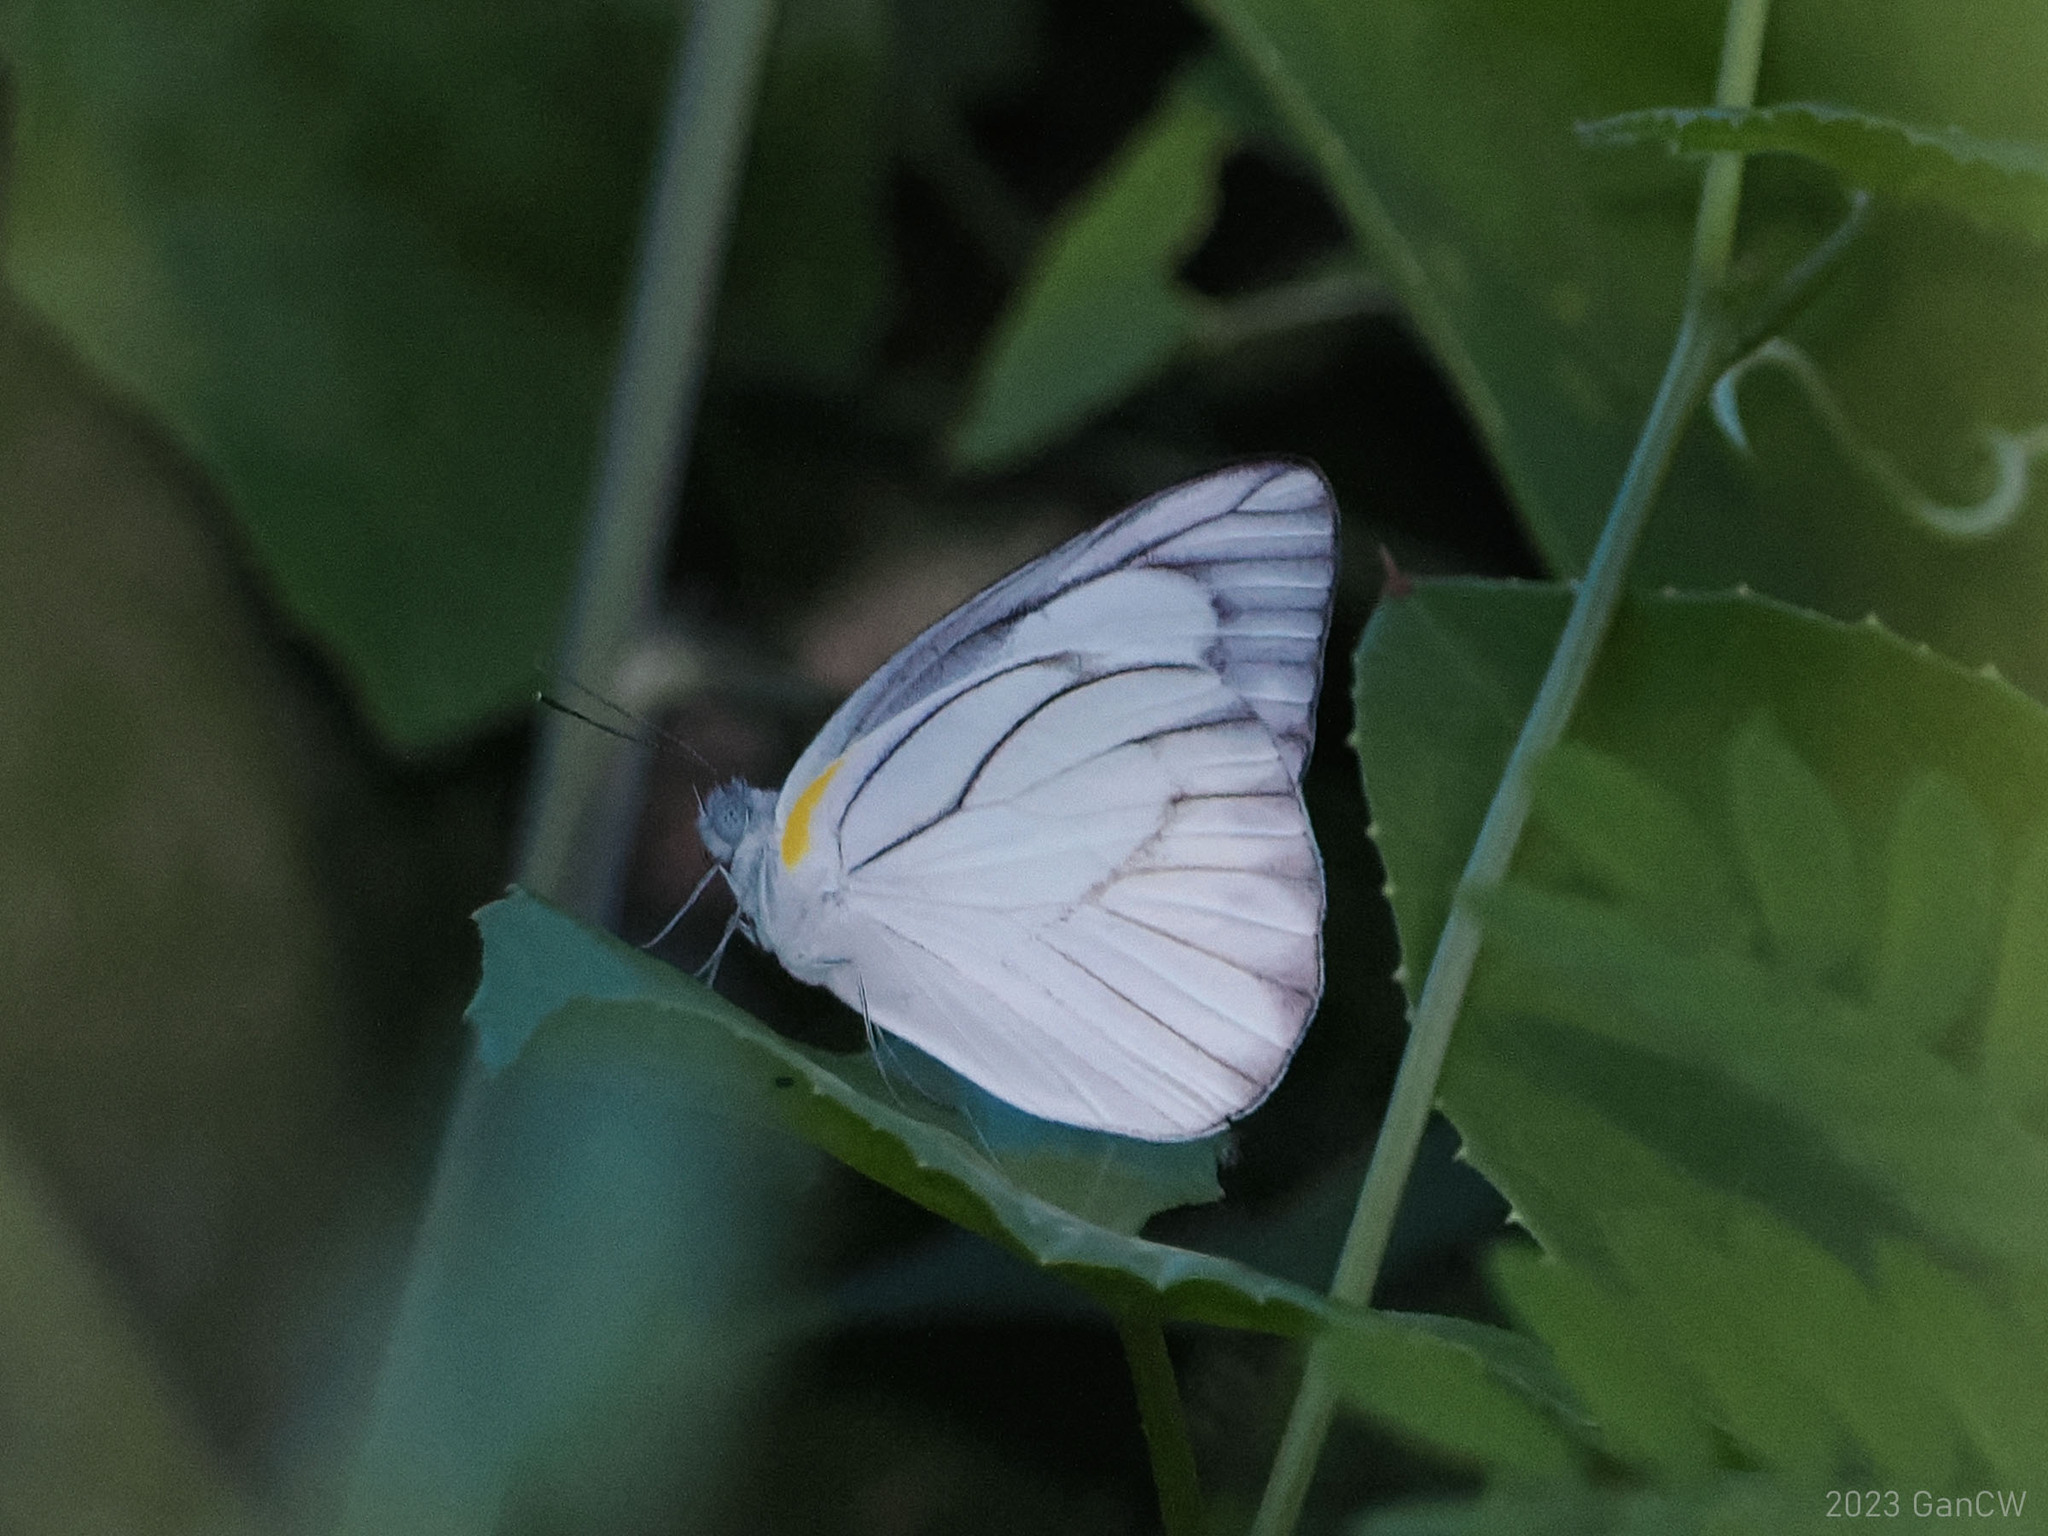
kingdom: Animalia
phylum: Arthropoda
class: Insecta
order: Lepidoptera
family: Pieridae
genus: Appias
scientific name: Appias libythea
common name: Striped albatross
